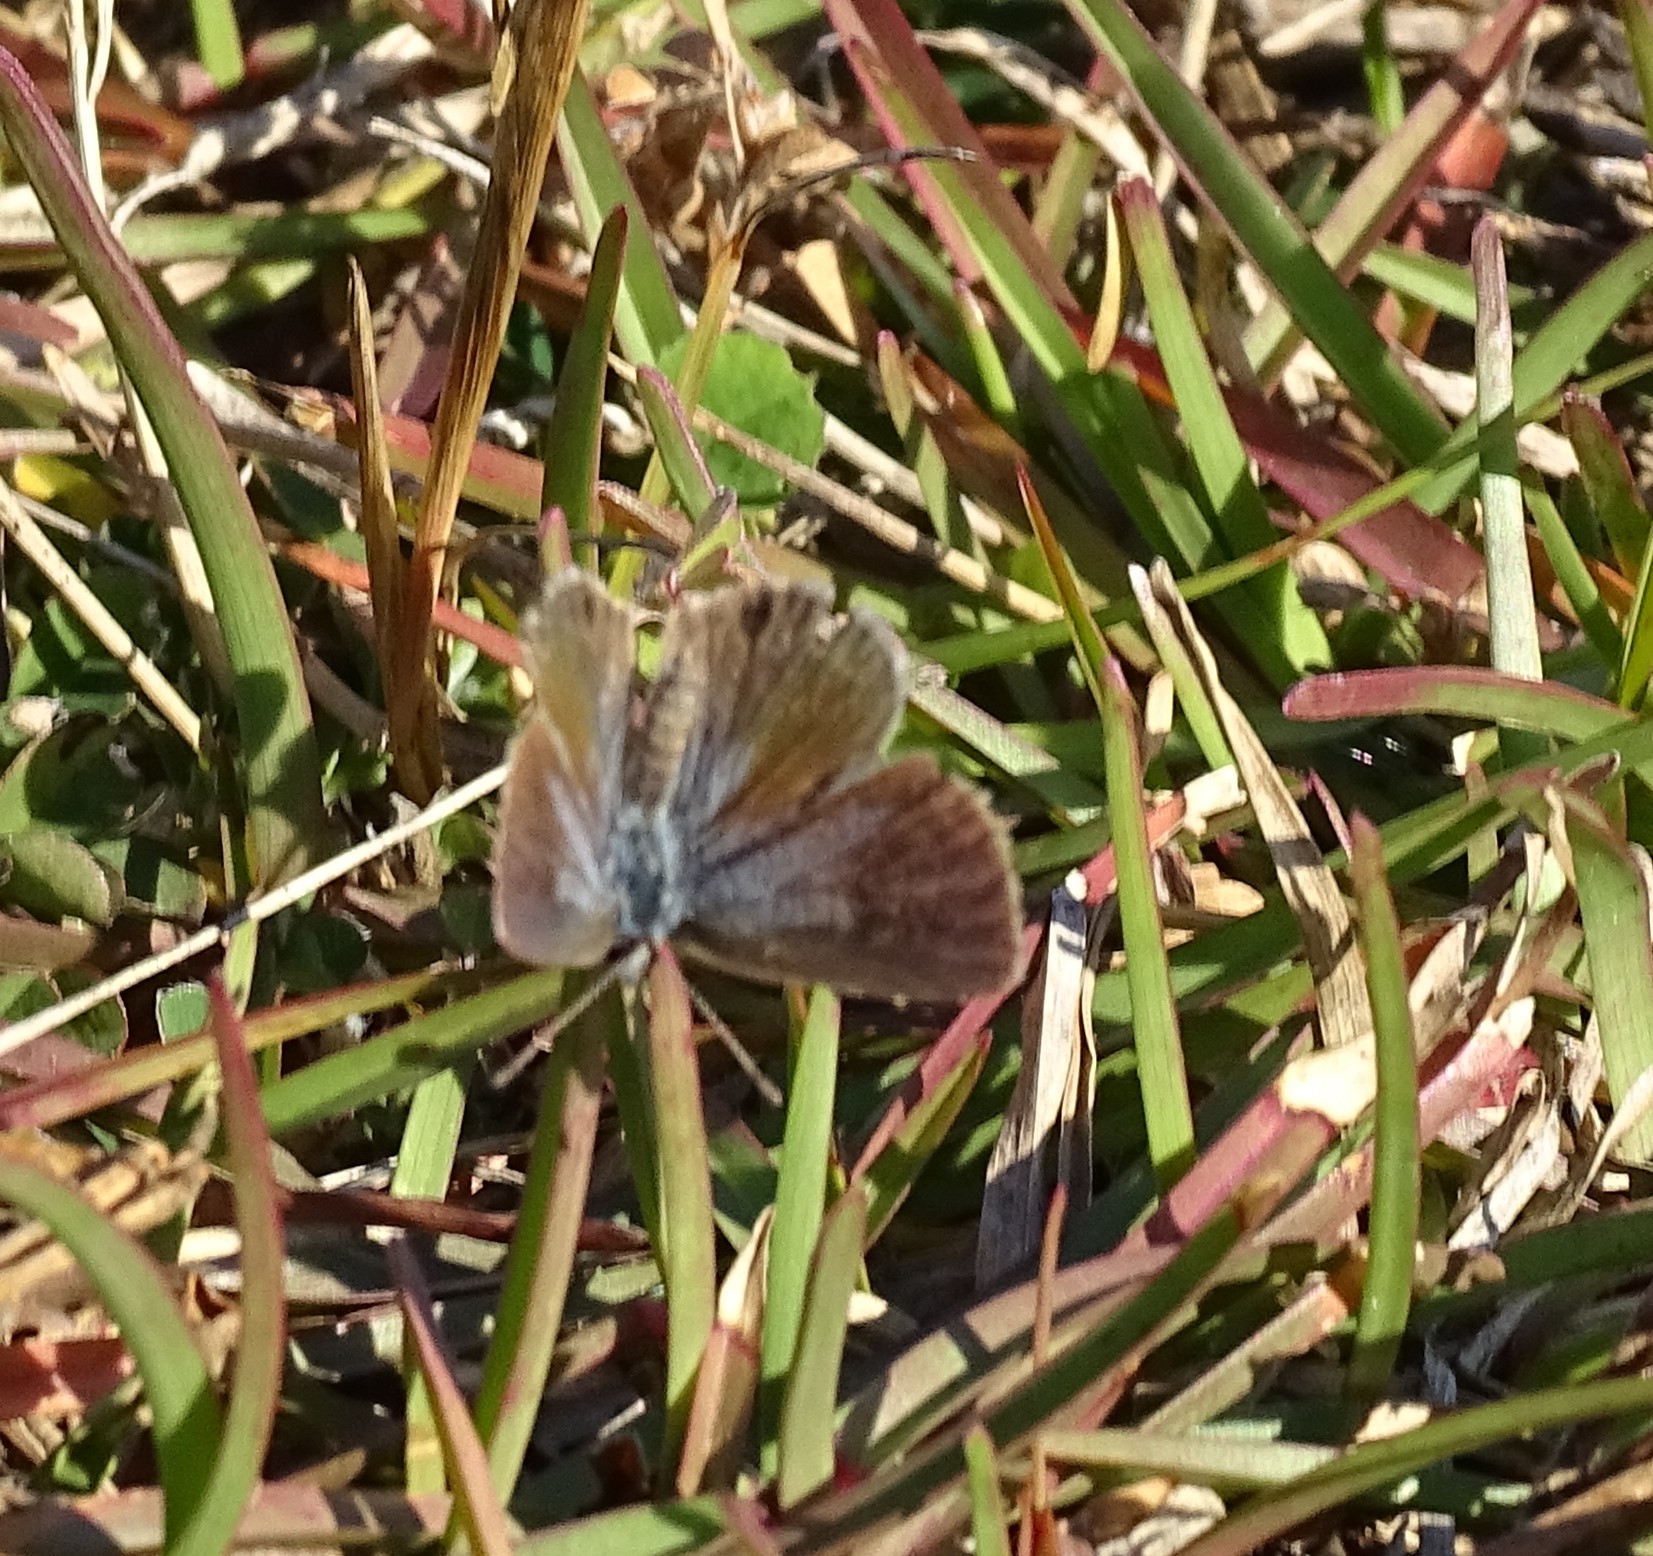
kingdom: Animalia
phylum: Arthropoda
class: Insecta
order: Lepidoptera
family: Lycaenidae
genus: Hemiargus
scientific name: Hemiargus ceraunus
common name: Ceraunus blue
